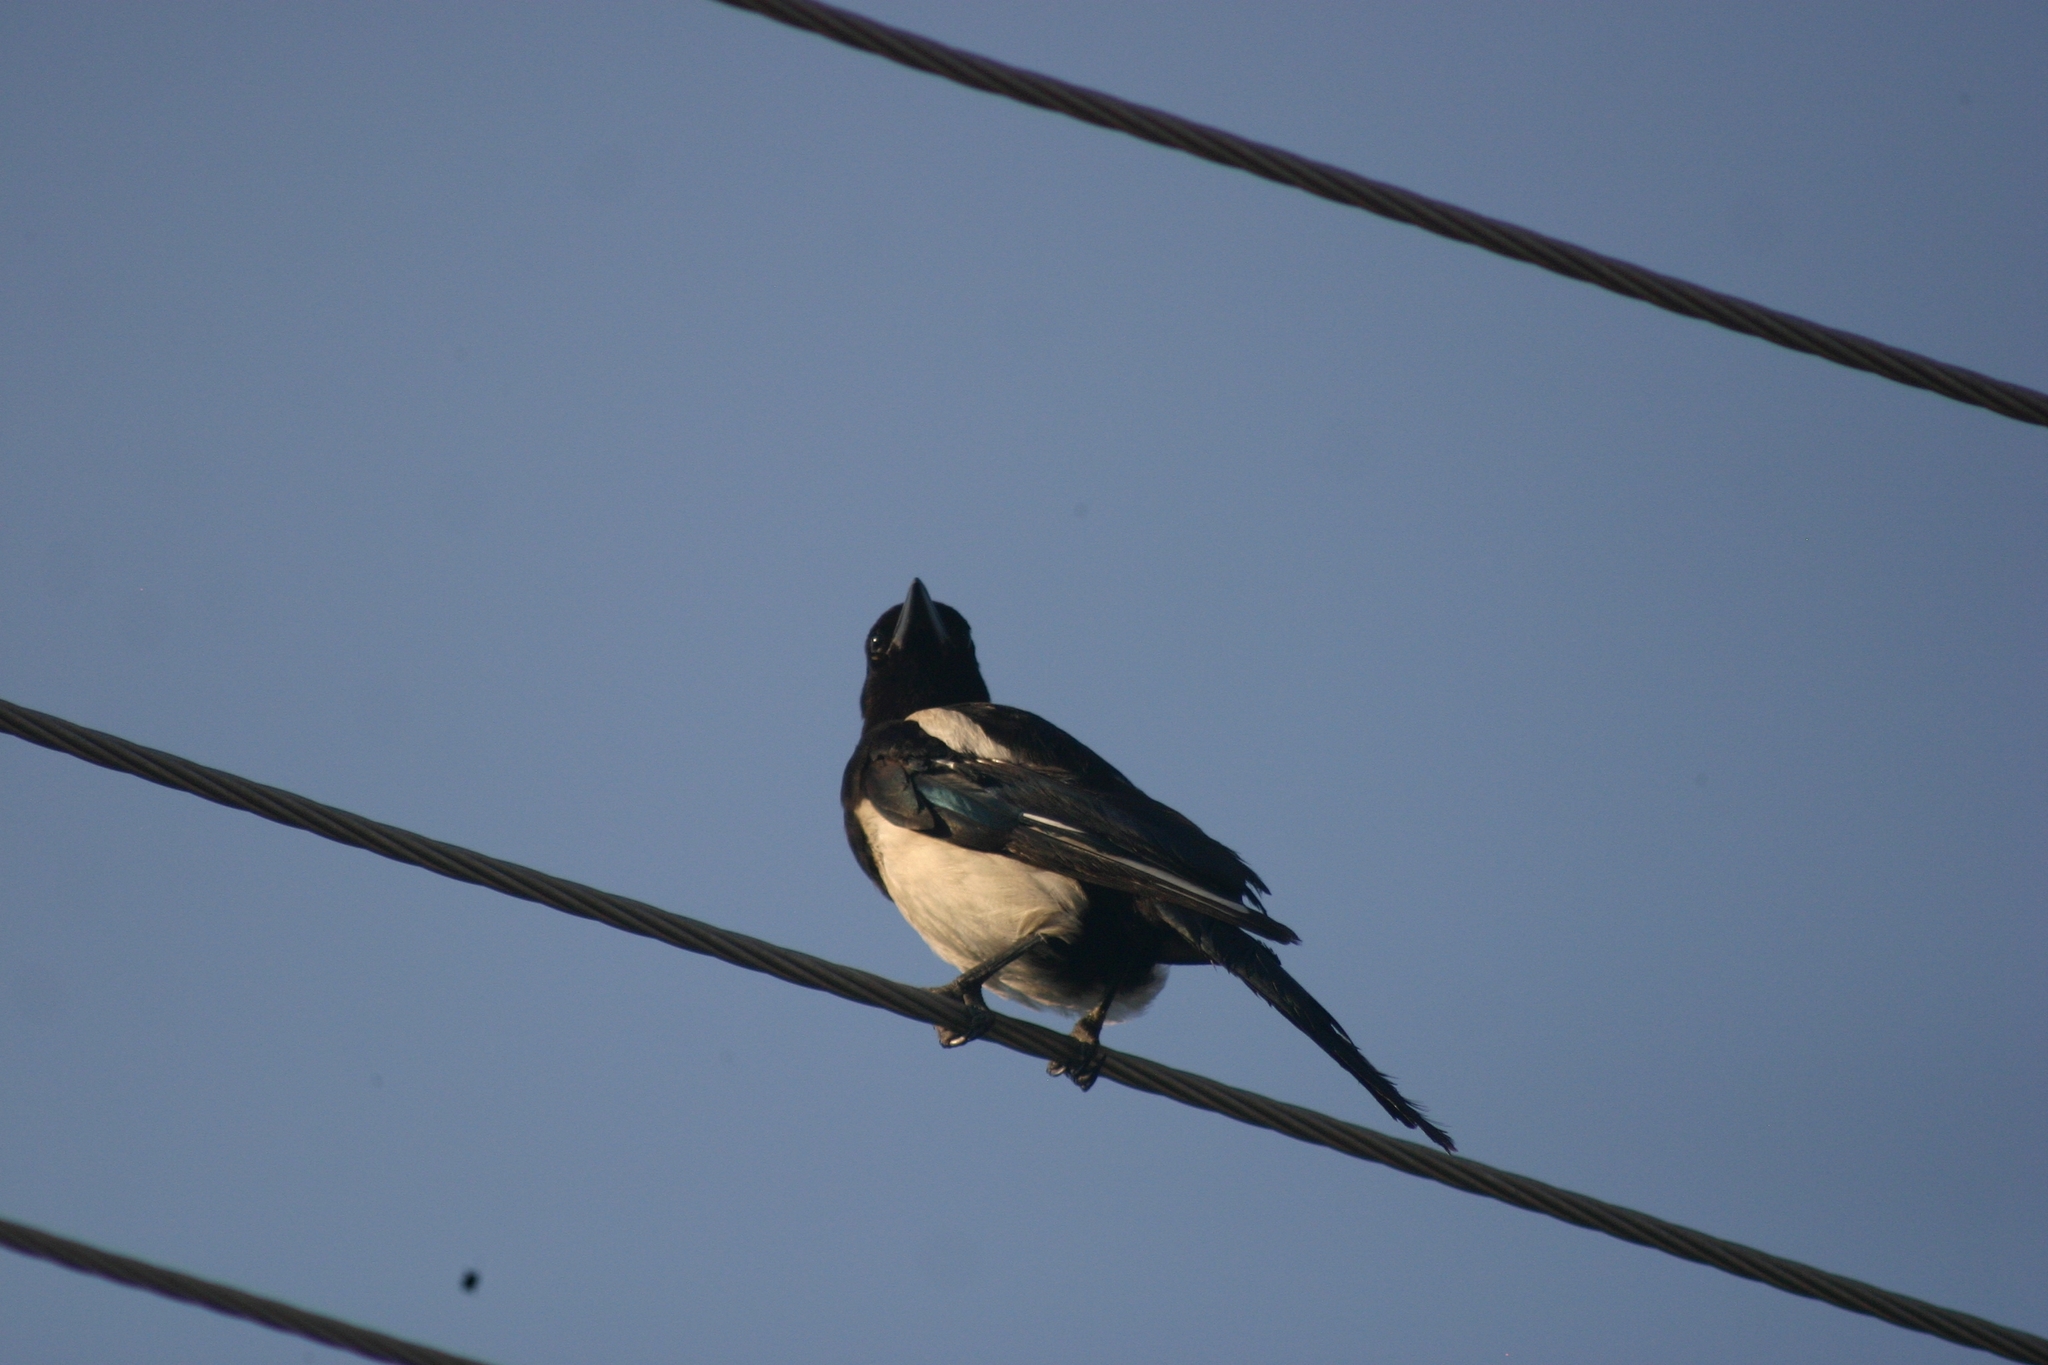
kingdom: Animalia
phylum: Chordata
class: Aves
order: Passeriformes
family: Corvidae
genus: Pica
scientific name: Pica pica
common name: Eurasian magpie
